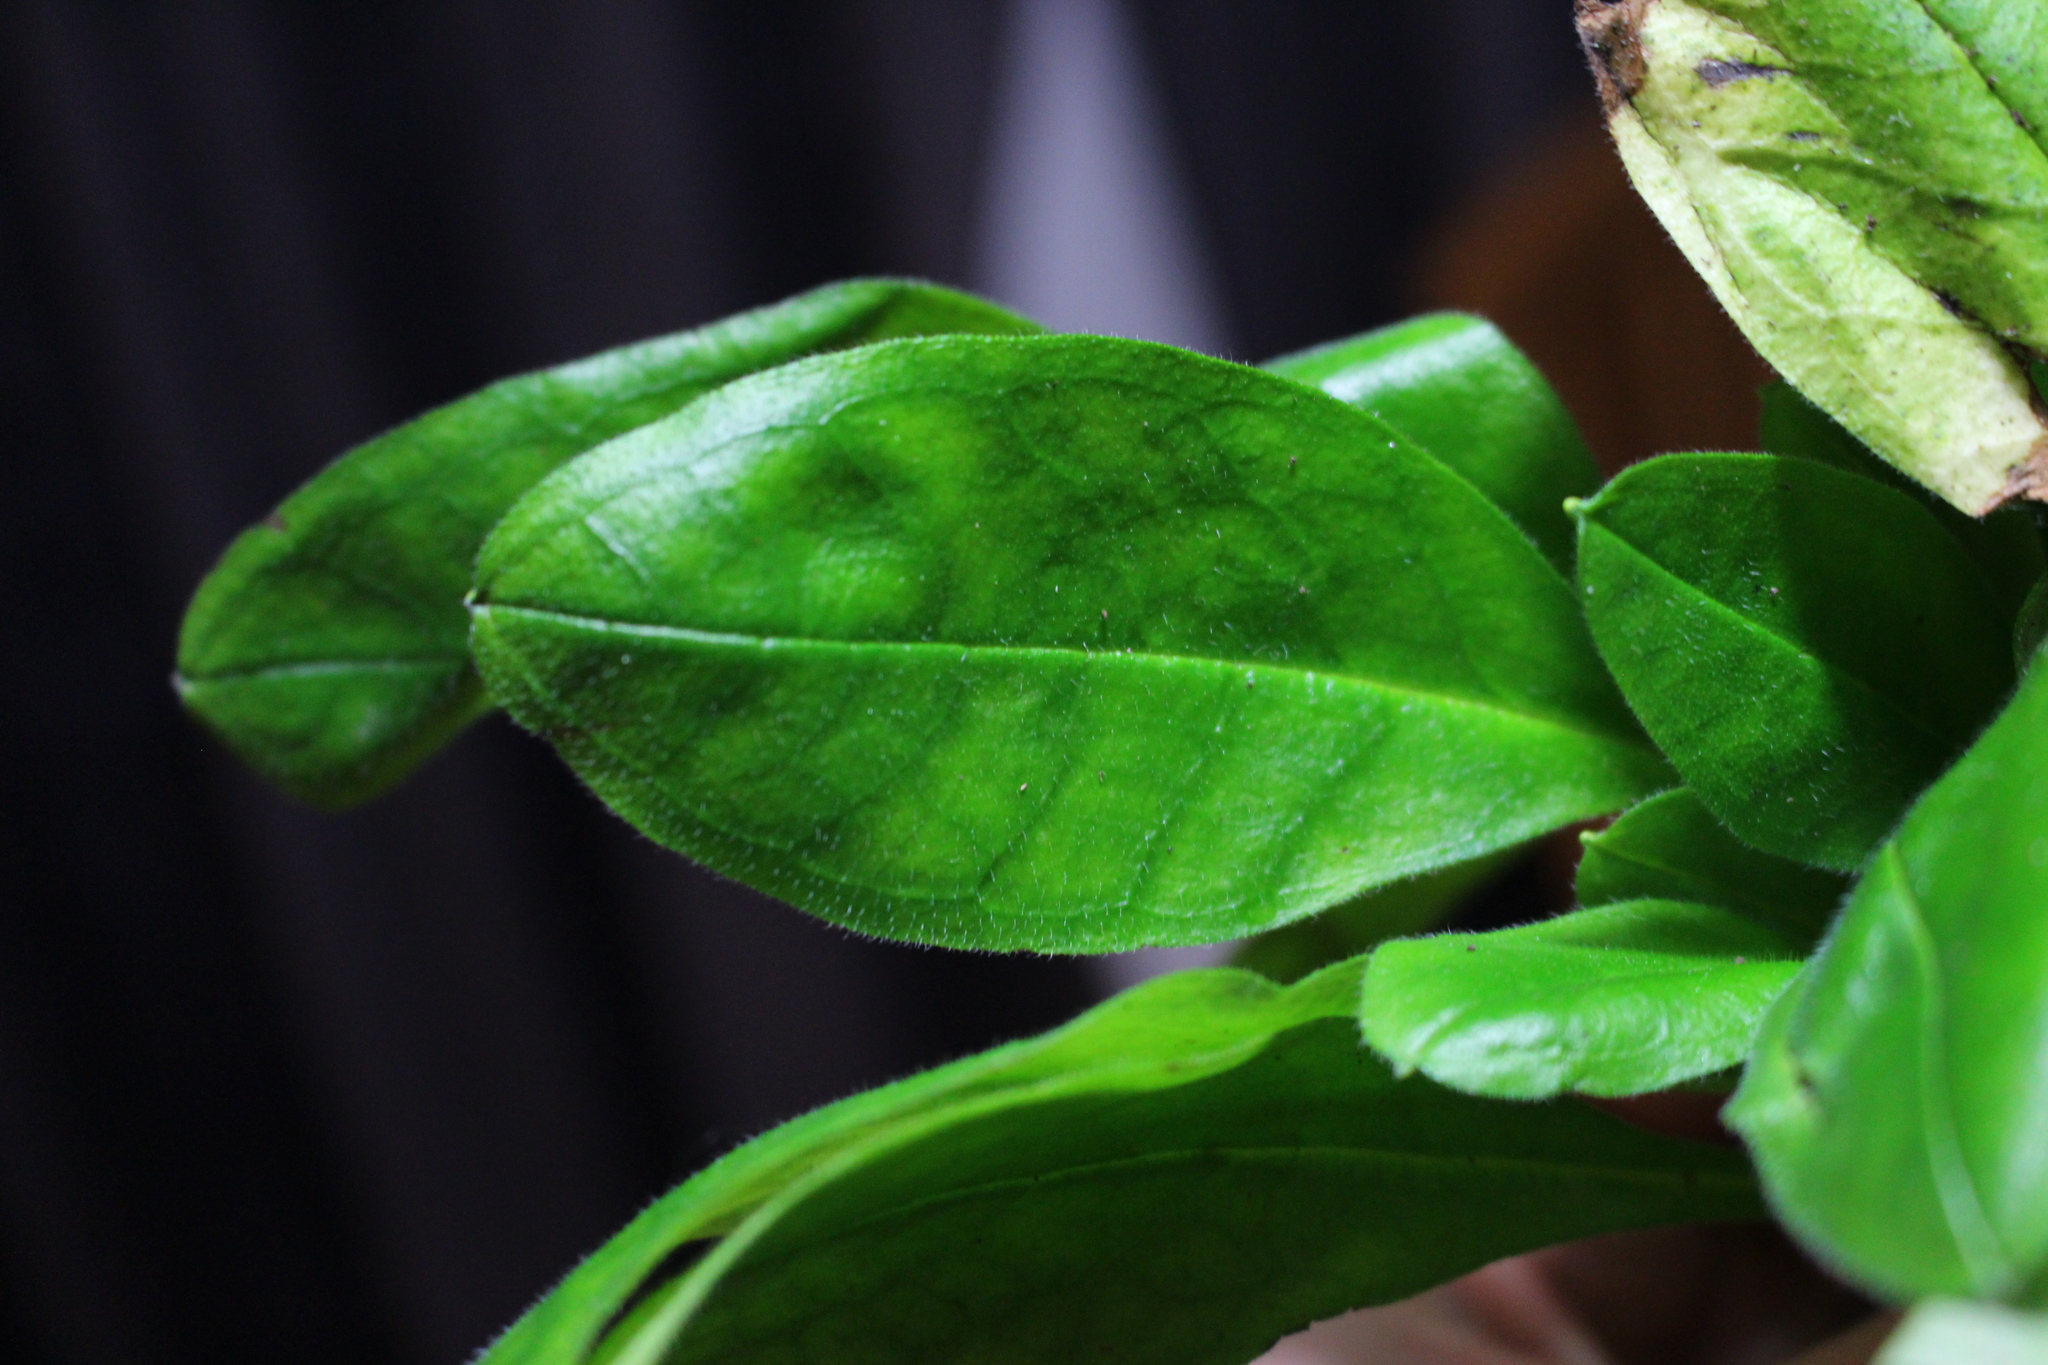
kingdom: Plantae
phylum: Tracheophyta
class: Magnoliopsida
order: Boraginales
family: Boraginaceae
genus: Myosotis
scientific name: Myosotis sylvatica
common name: Wood forget-me-not
